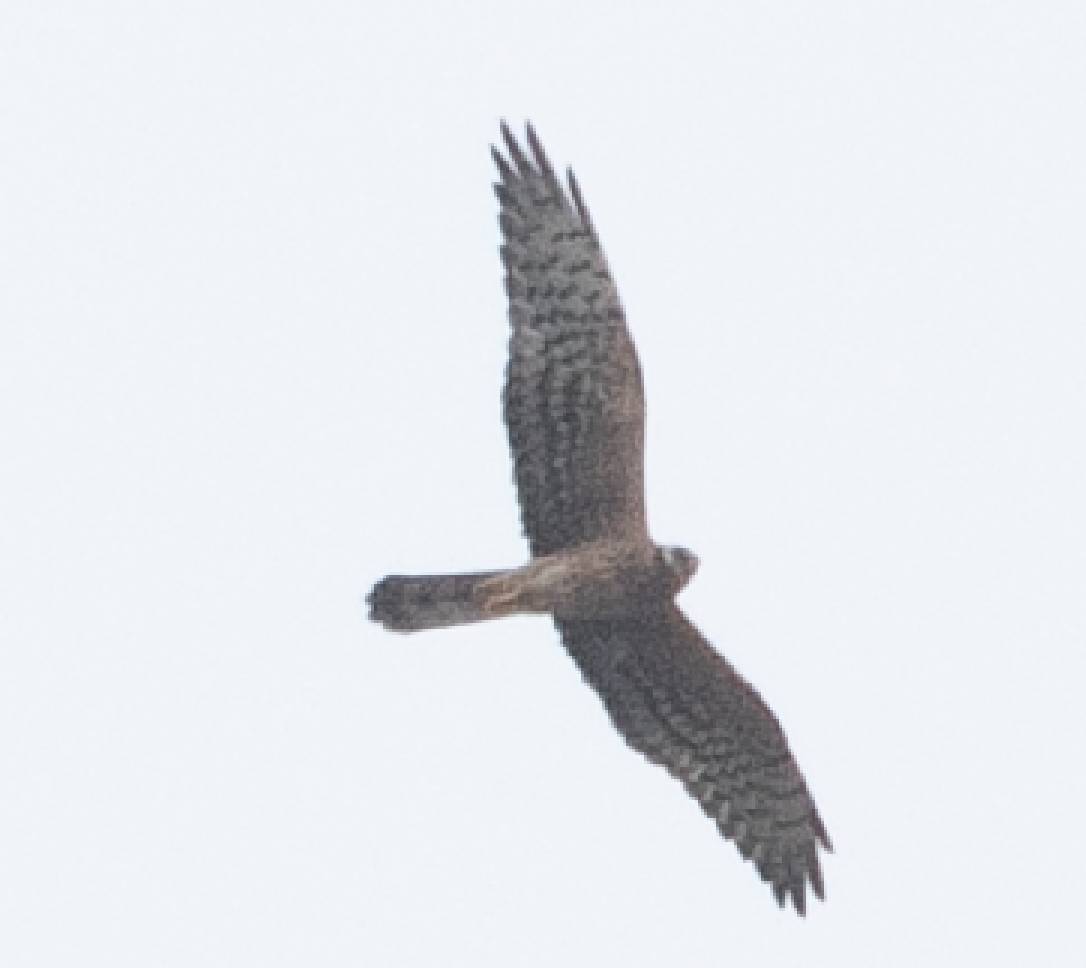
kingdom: Animalia
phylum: Chordata
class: Aves
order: Accipitriformes
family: Accipitridae
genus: Circus
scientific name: Circus pygargus
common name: Montagu's harrier
